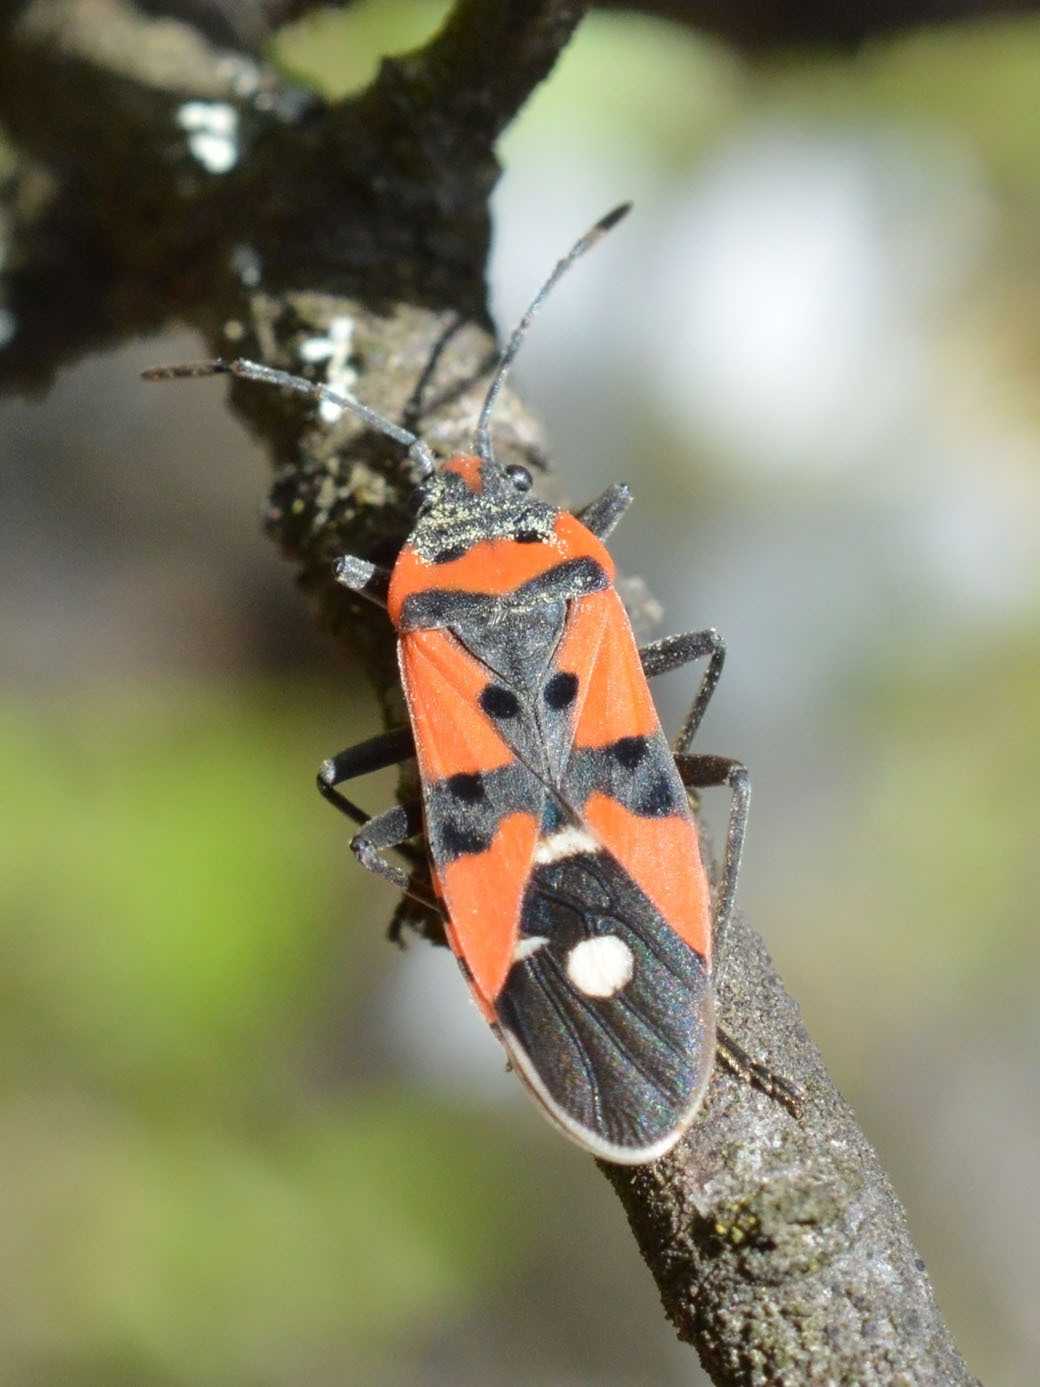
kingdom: Animalia
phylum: Arthropoda
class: Insecta
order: Hemiptera
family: Lygaeidae
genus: Lygaeus
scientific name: Lygaeus equestris
